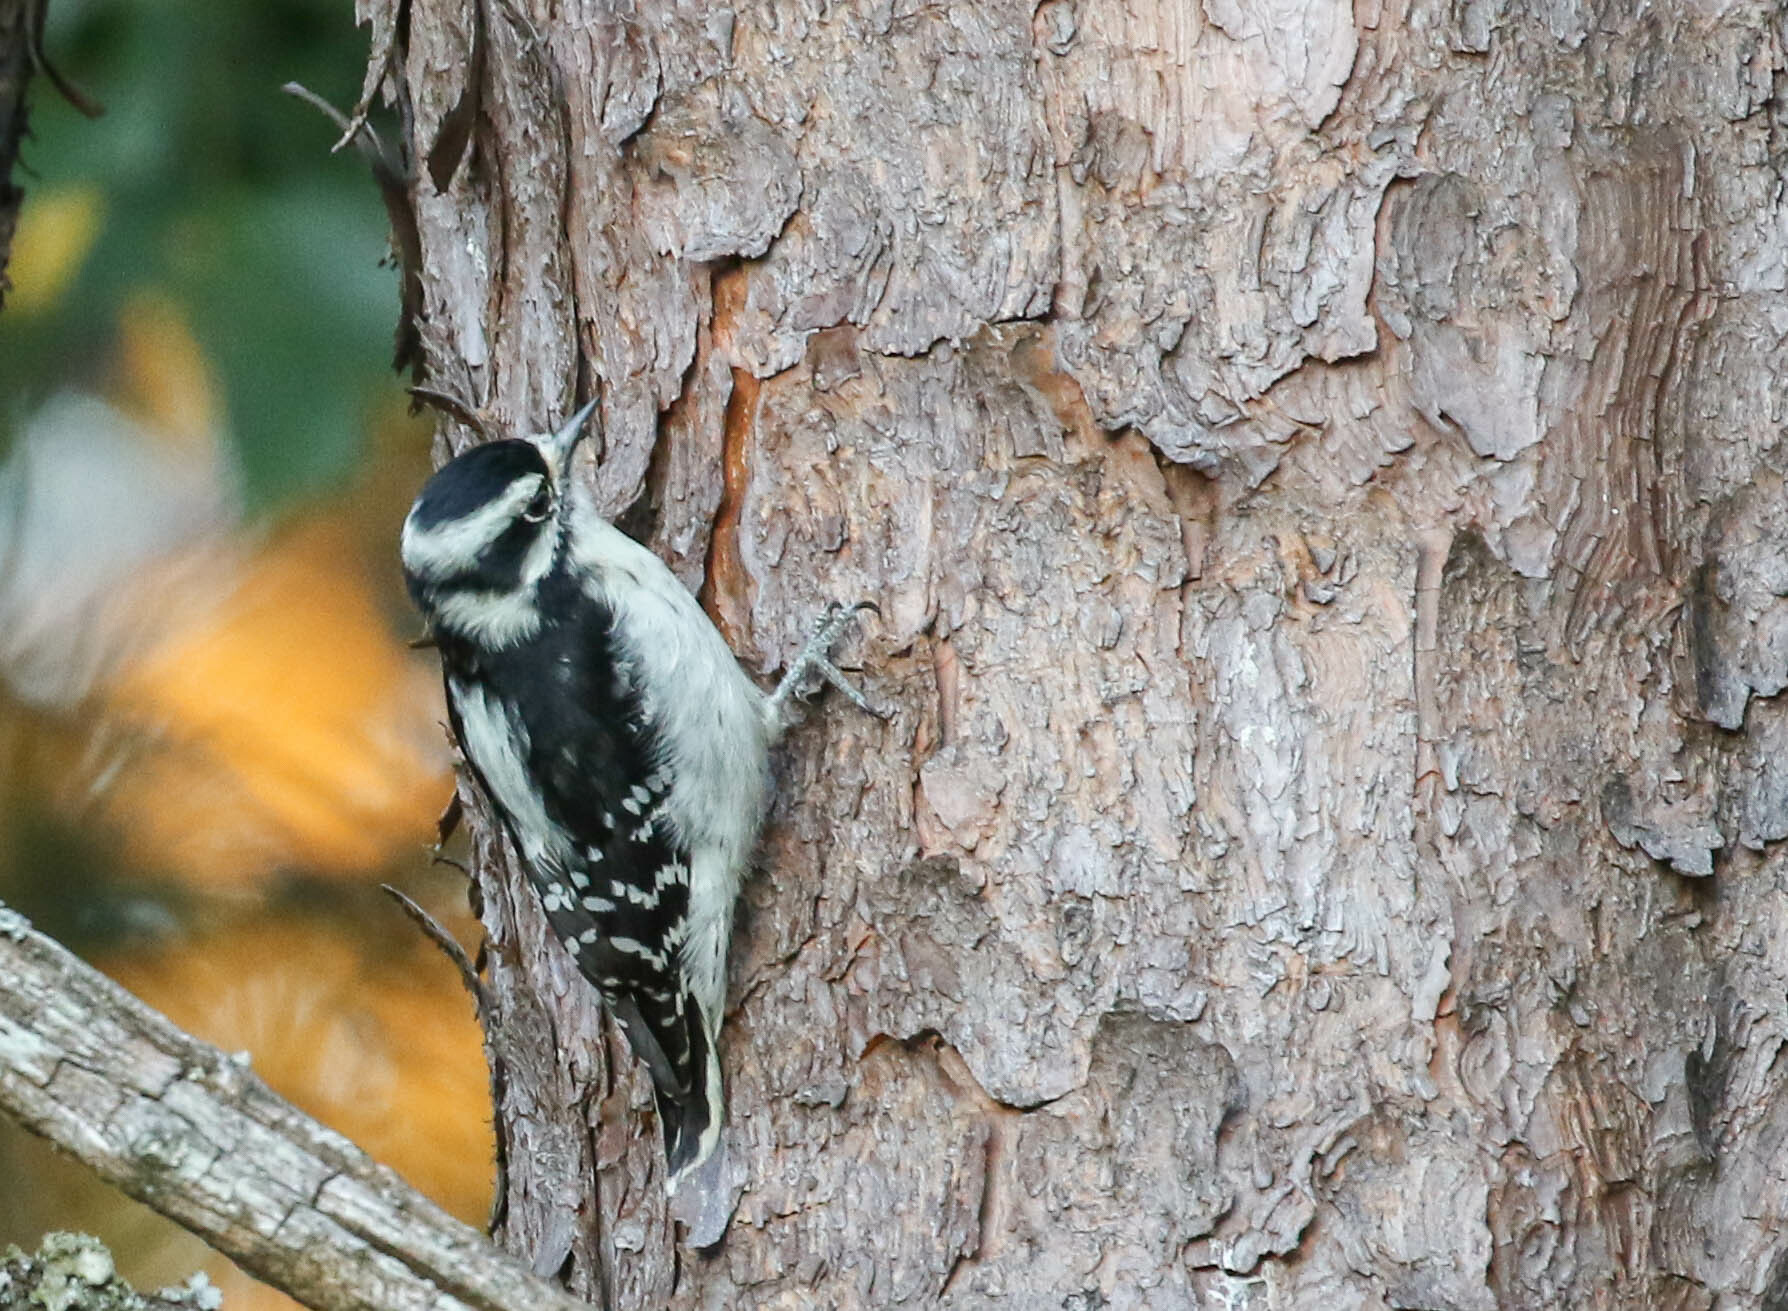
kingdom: Animalia
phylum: Chordata
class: Aves
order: Piciformes
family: Picidae
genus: Dryobates
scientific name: Dryobates pubescens
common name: Downy woodpecker
